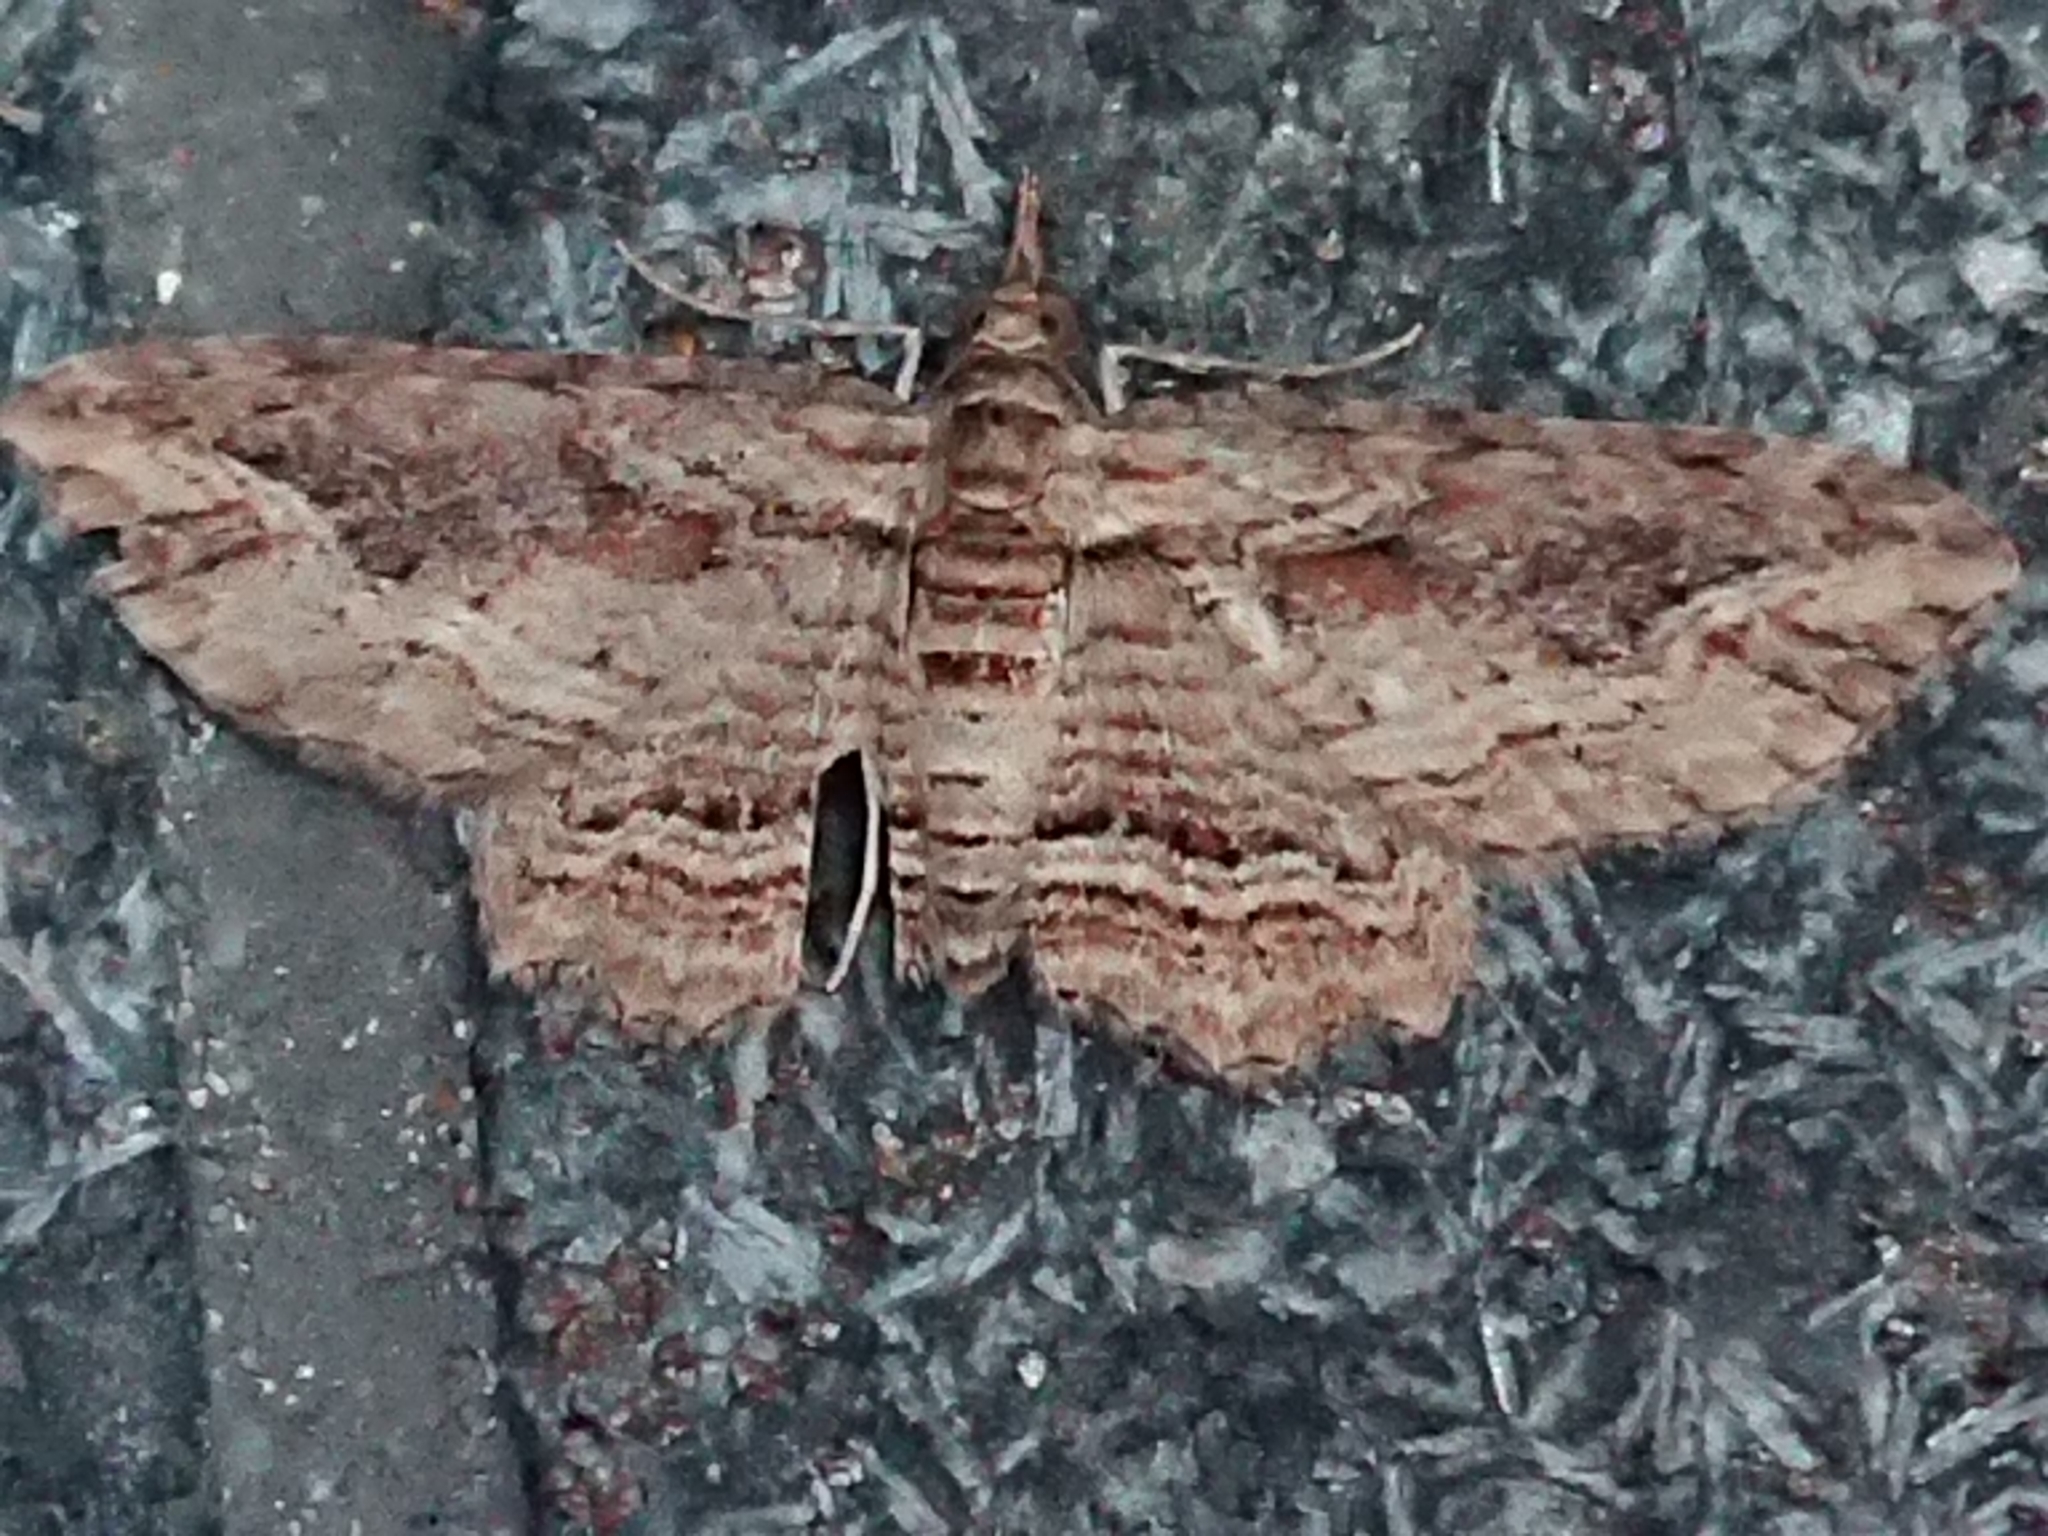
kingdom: Animalia
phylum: Arthropoda
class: Insecta
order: Lepidoptera
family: Geometridae
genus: Chloroclystis
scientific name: Chloroclystis filata
